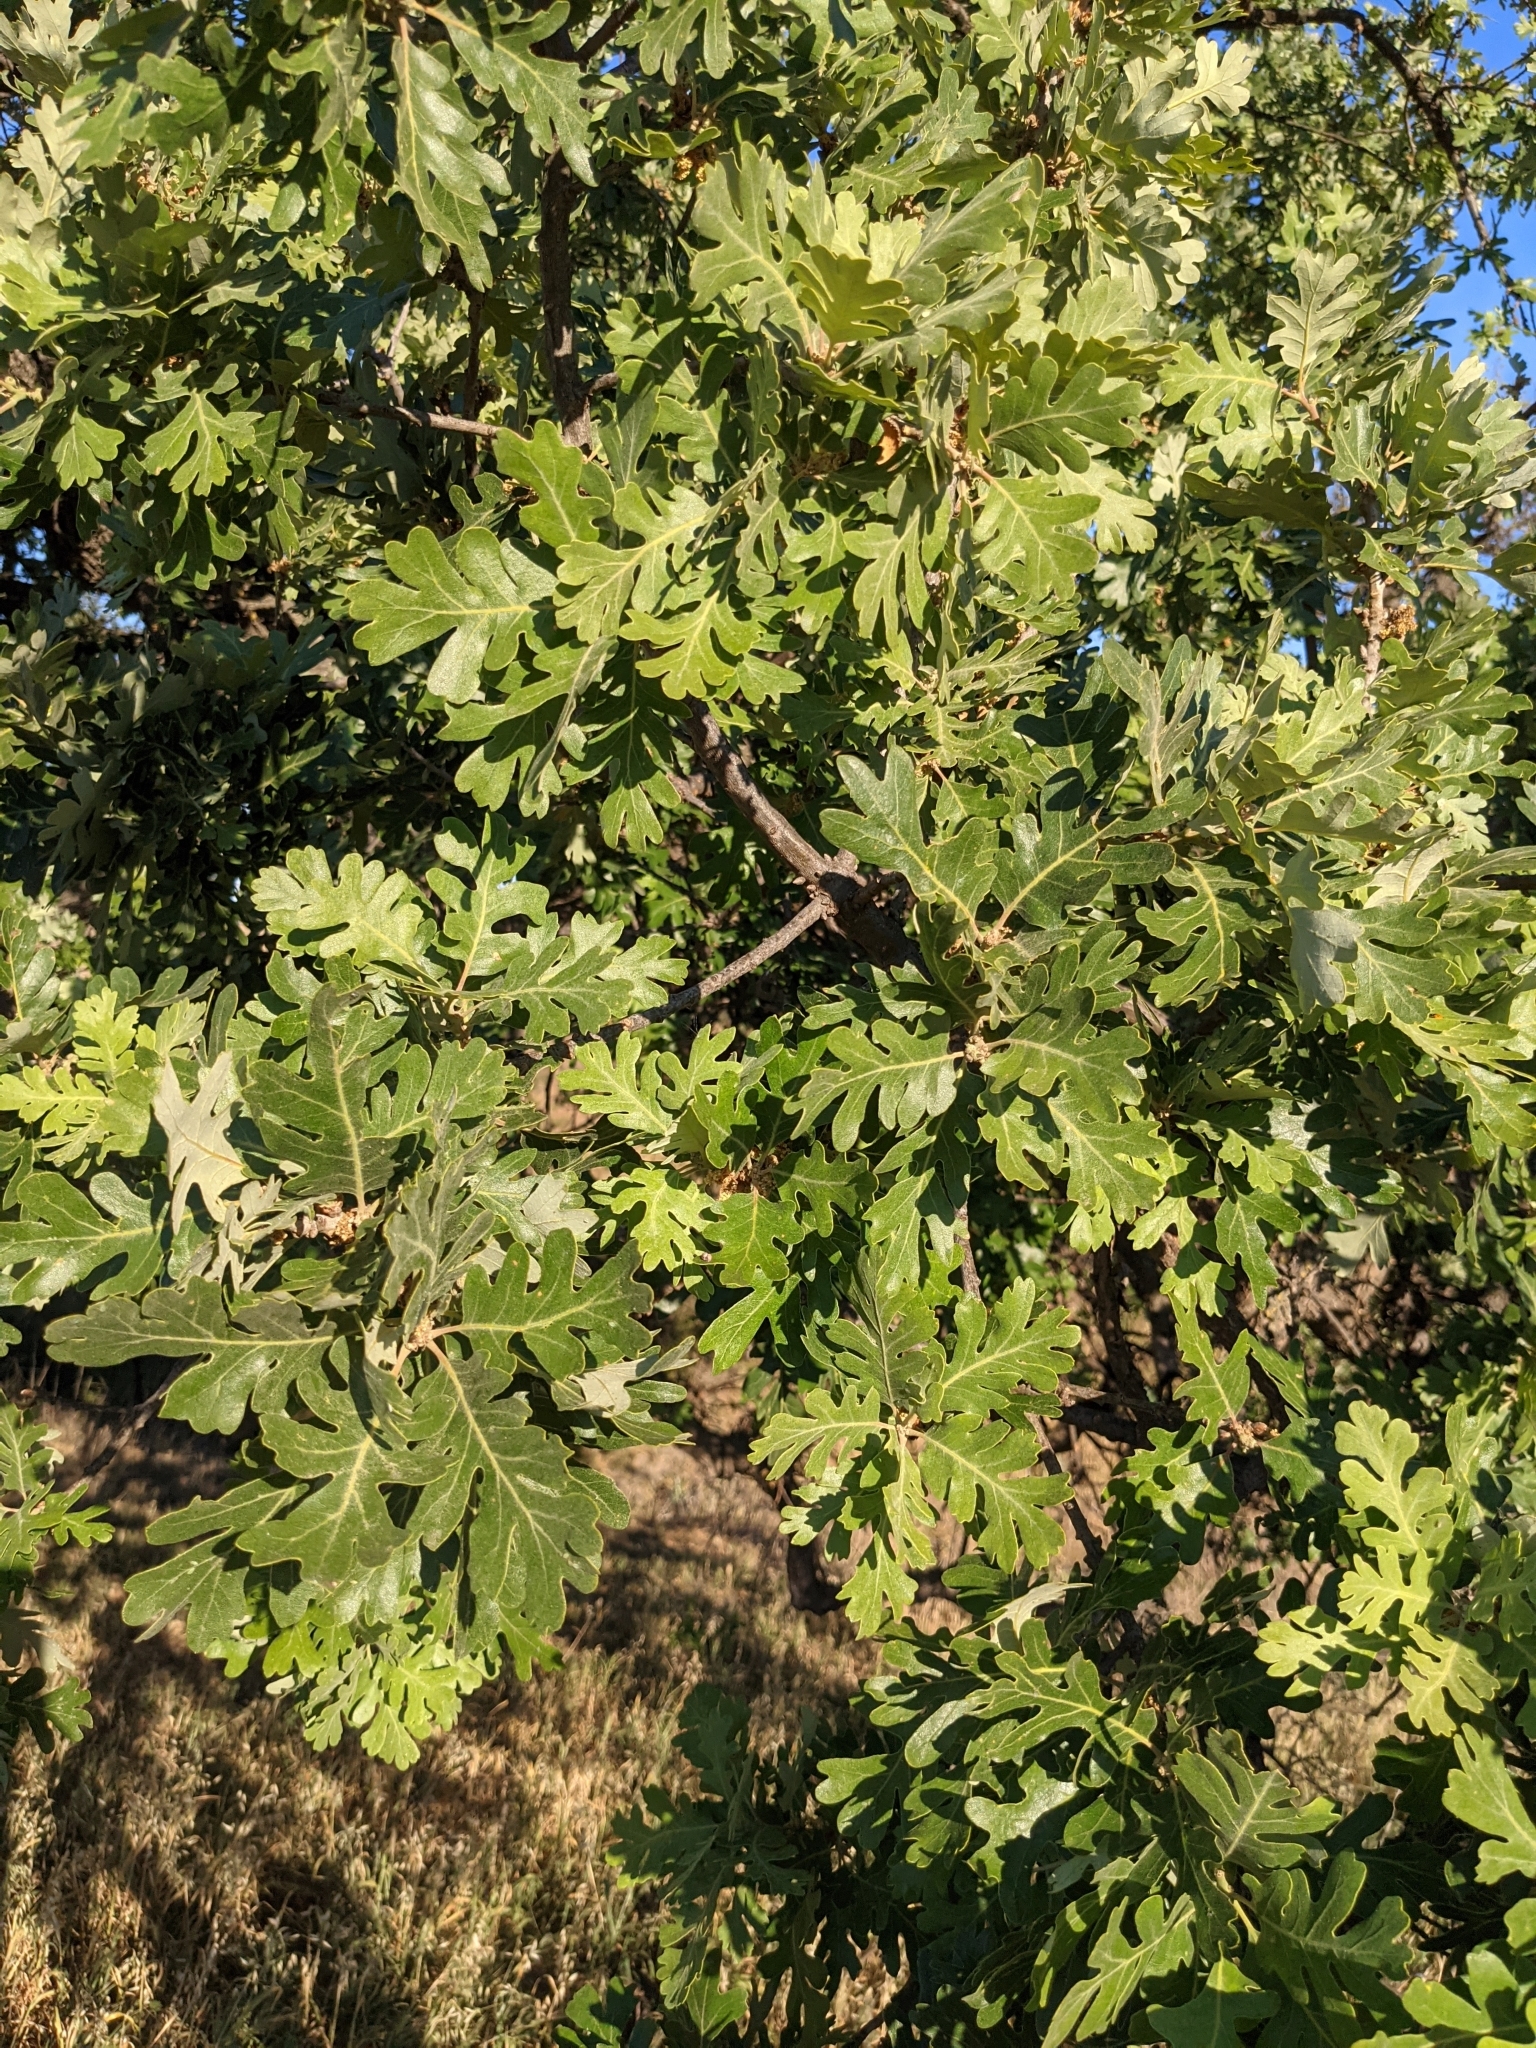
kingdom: Plantae
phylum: Tracheophyta
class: Magnoliopsida
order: Fagales
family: Fagaceae
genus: Quercus
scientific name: Quercus lobata
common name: Valley oak
